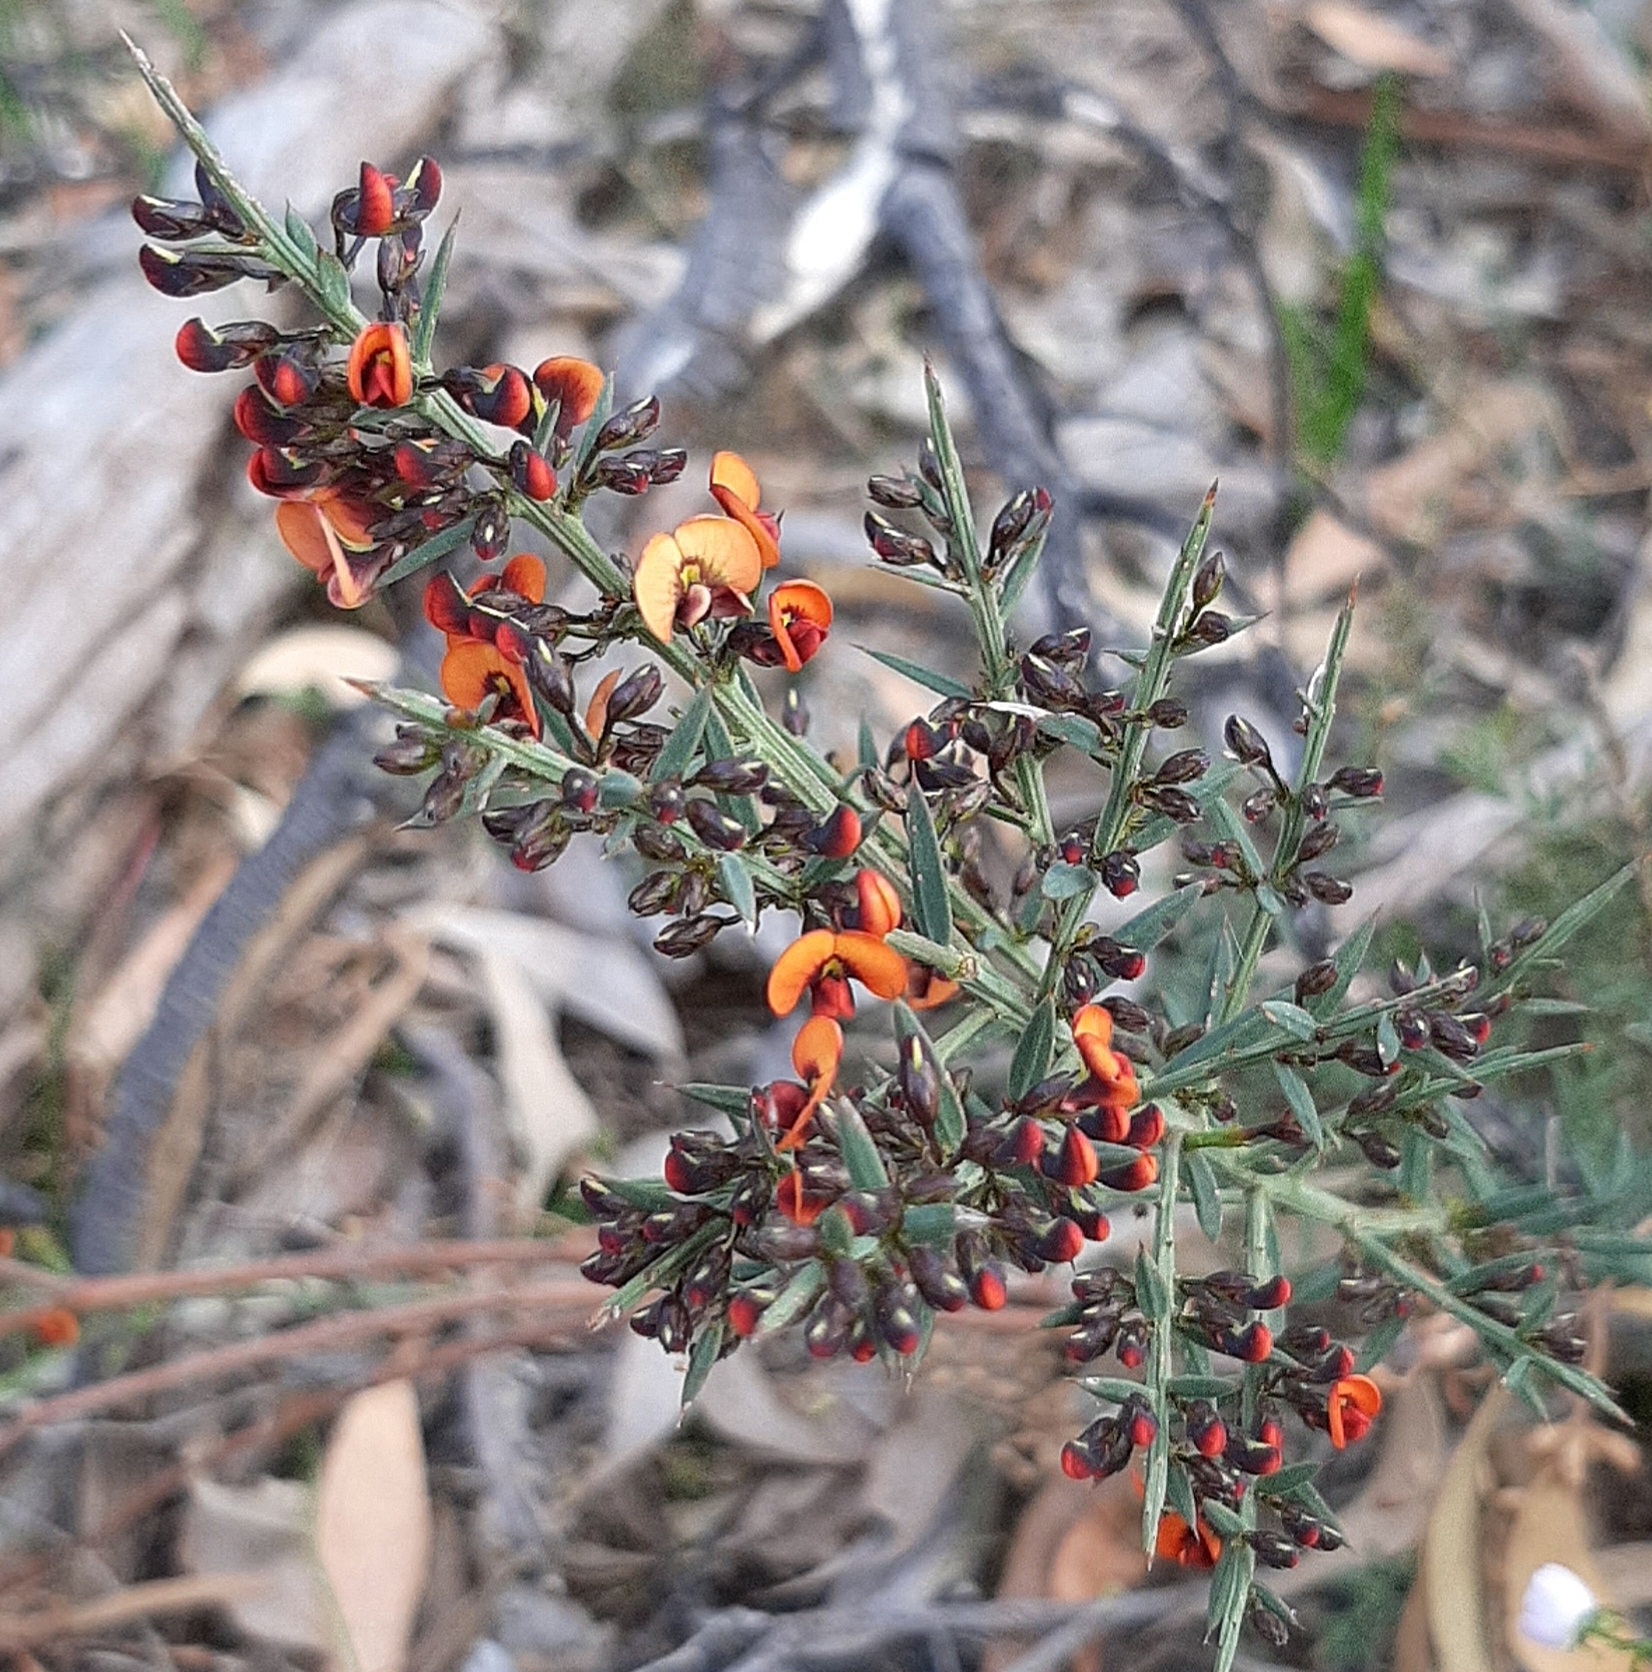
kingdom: Plantae
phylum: Tracheophyta
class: Magnoliopsida
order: Fabales
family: Fabaceae
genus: Daviesia
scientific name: Daviesia ulicifolia
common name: Gorse bitter-pea
